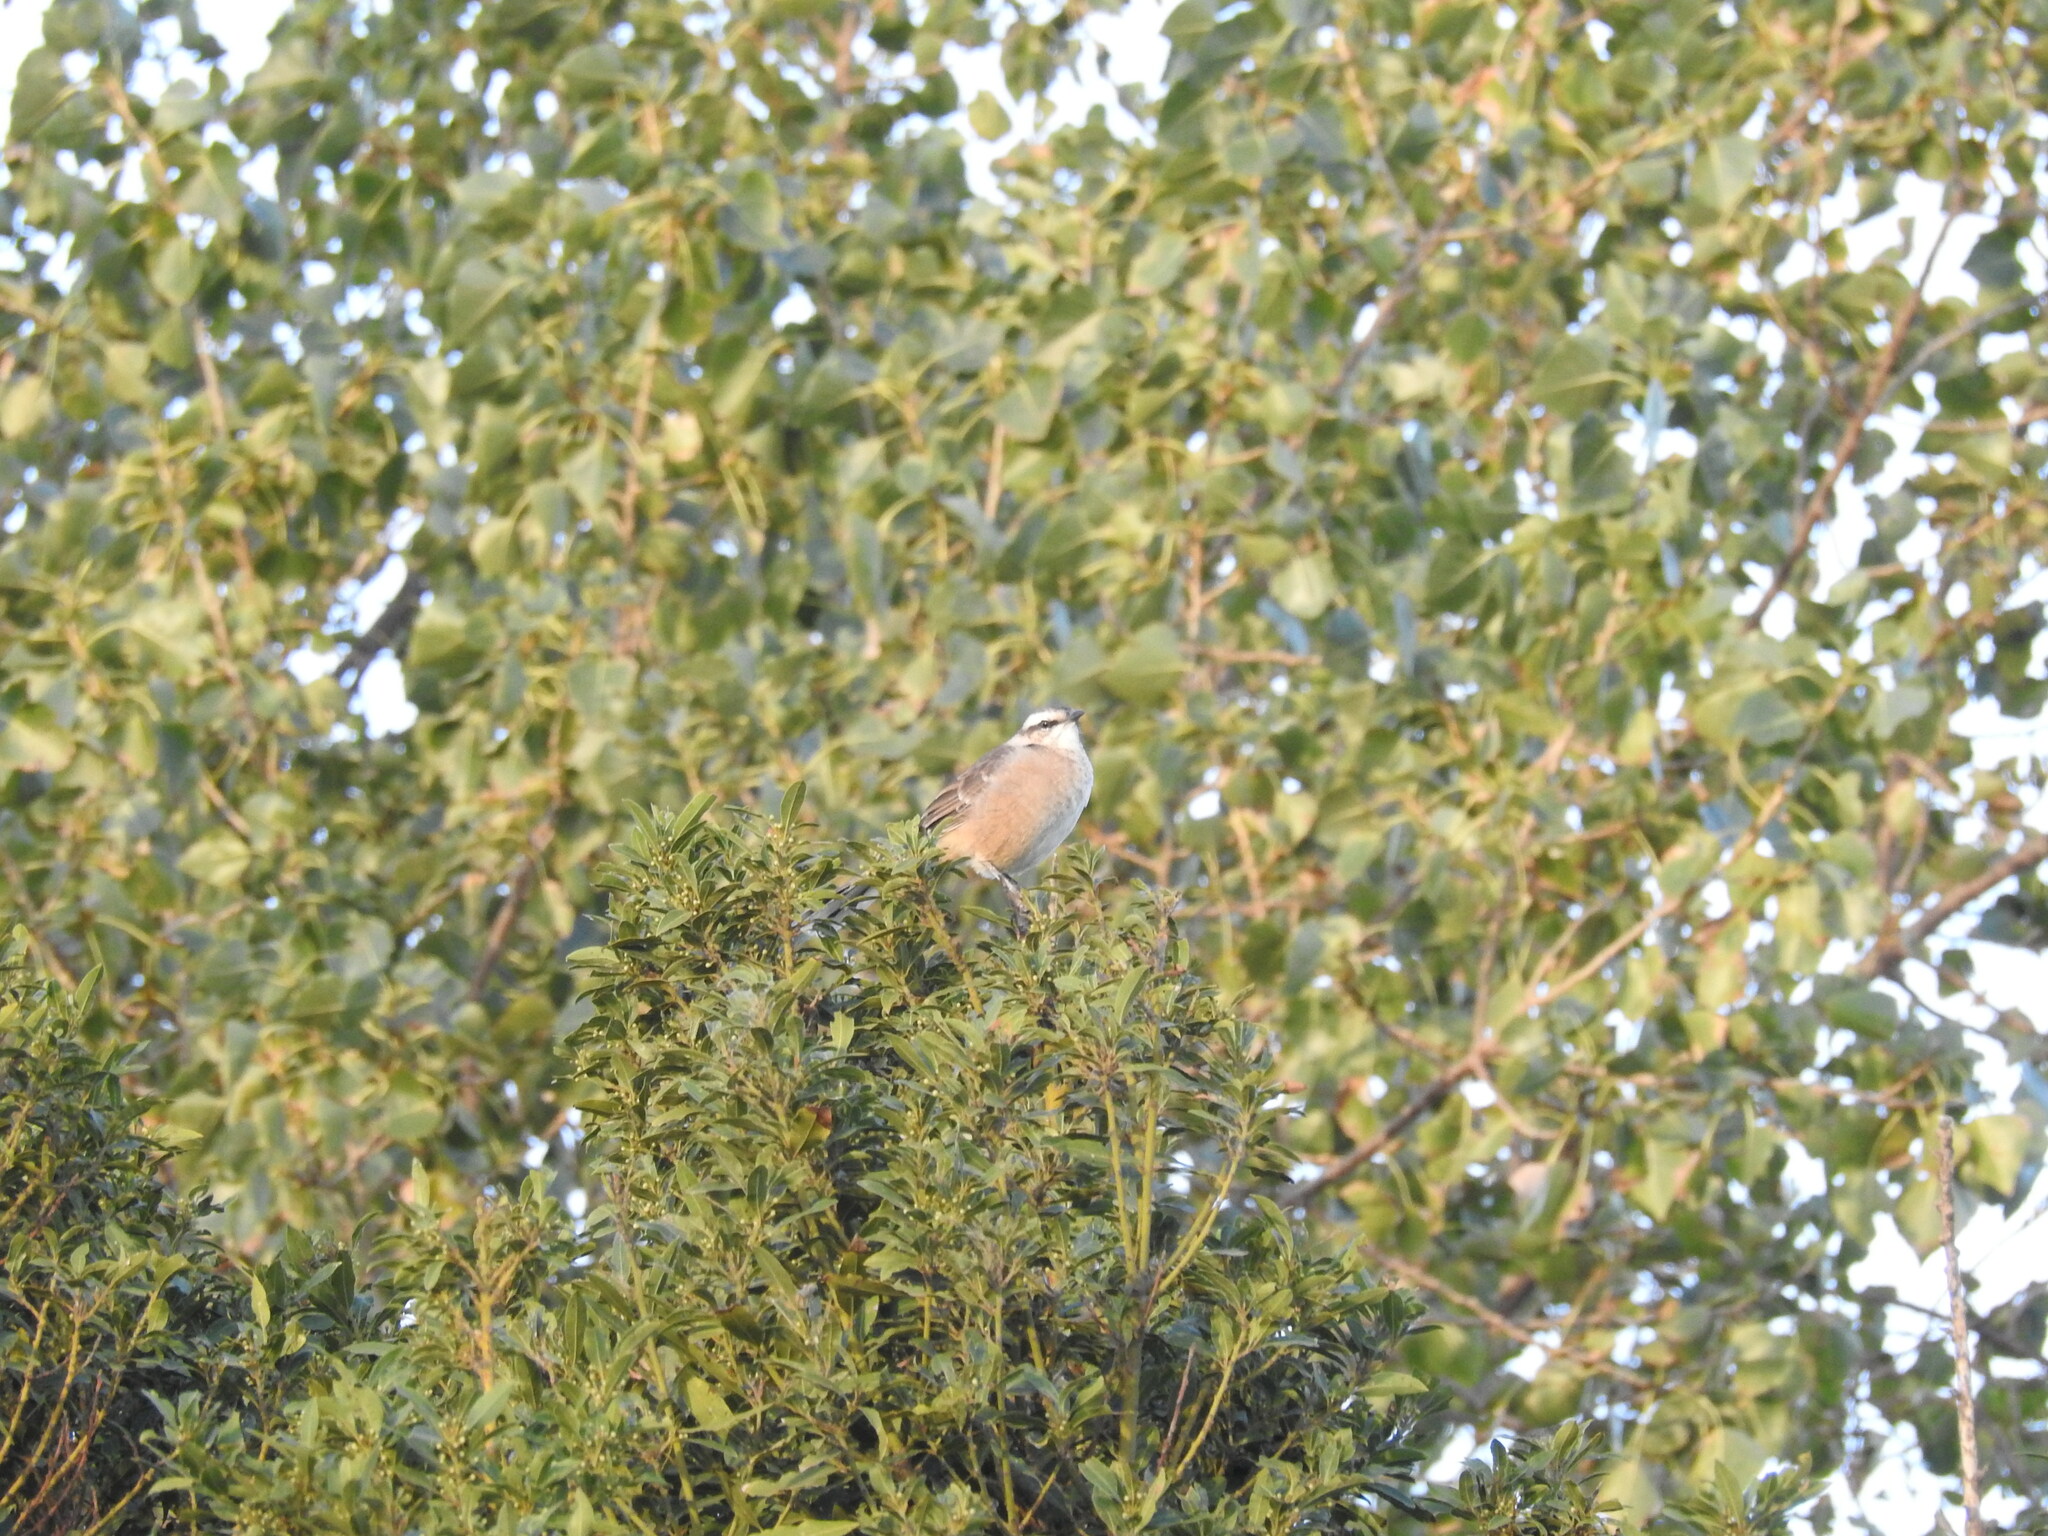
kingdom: Animalia
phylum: Chordata
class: Aves
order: Passeriformes
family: Mimidae
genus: Mimus
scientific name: Mimus saturninus
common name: Chalk-browed mockingbird
